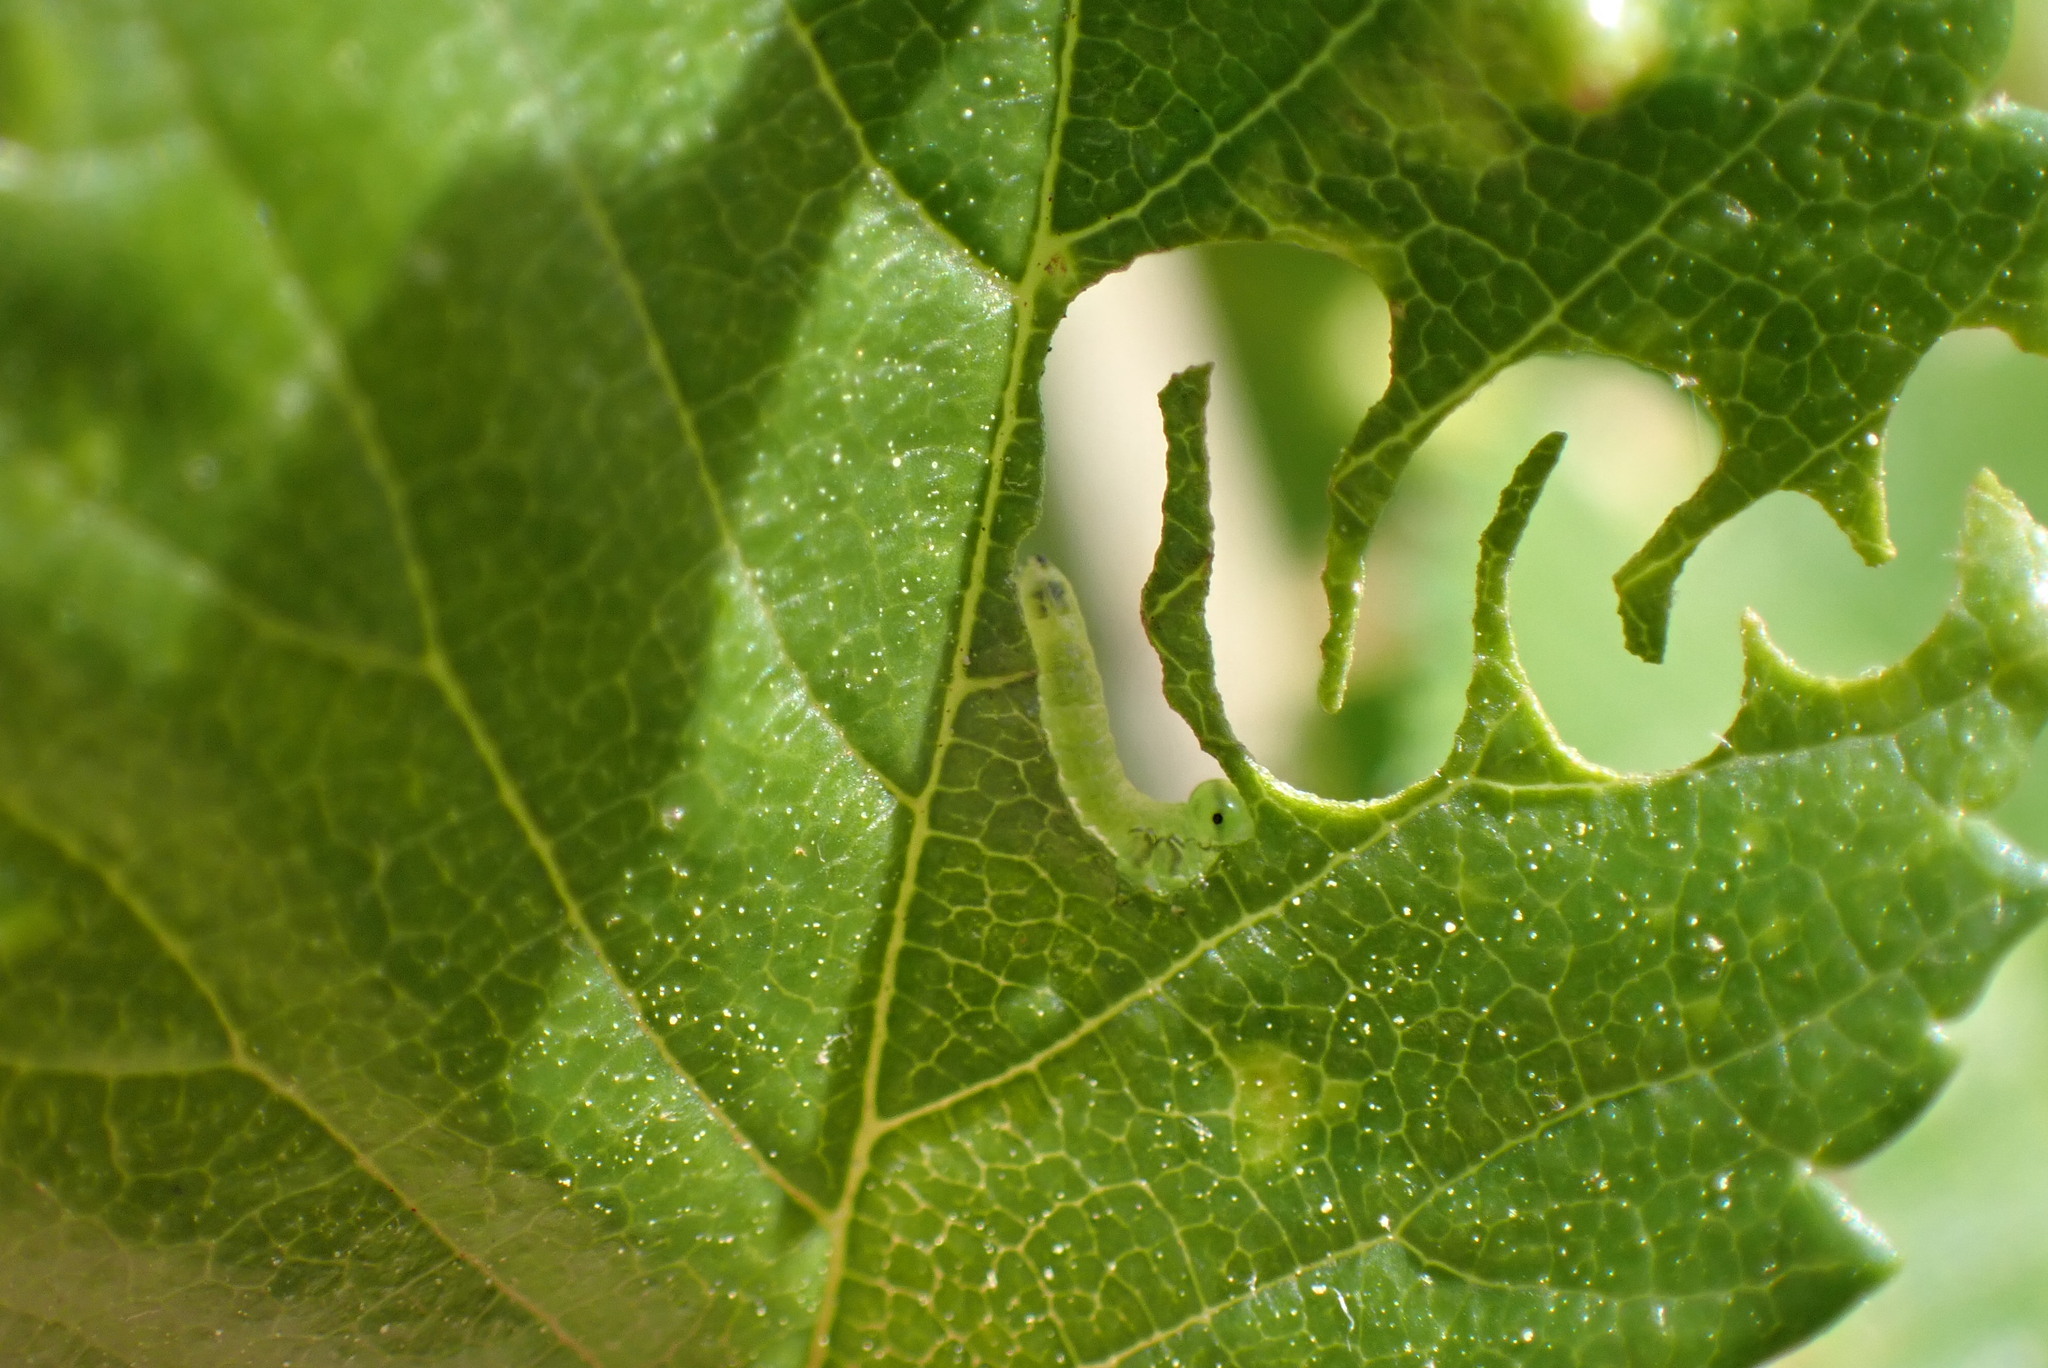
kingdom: Animalia
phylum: Arthropoda
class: Insecta
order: Hymenoptera
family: Argidae
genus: Aproceros
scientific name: Aproceros leucopoda
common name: Zig-zag elm sawfly
